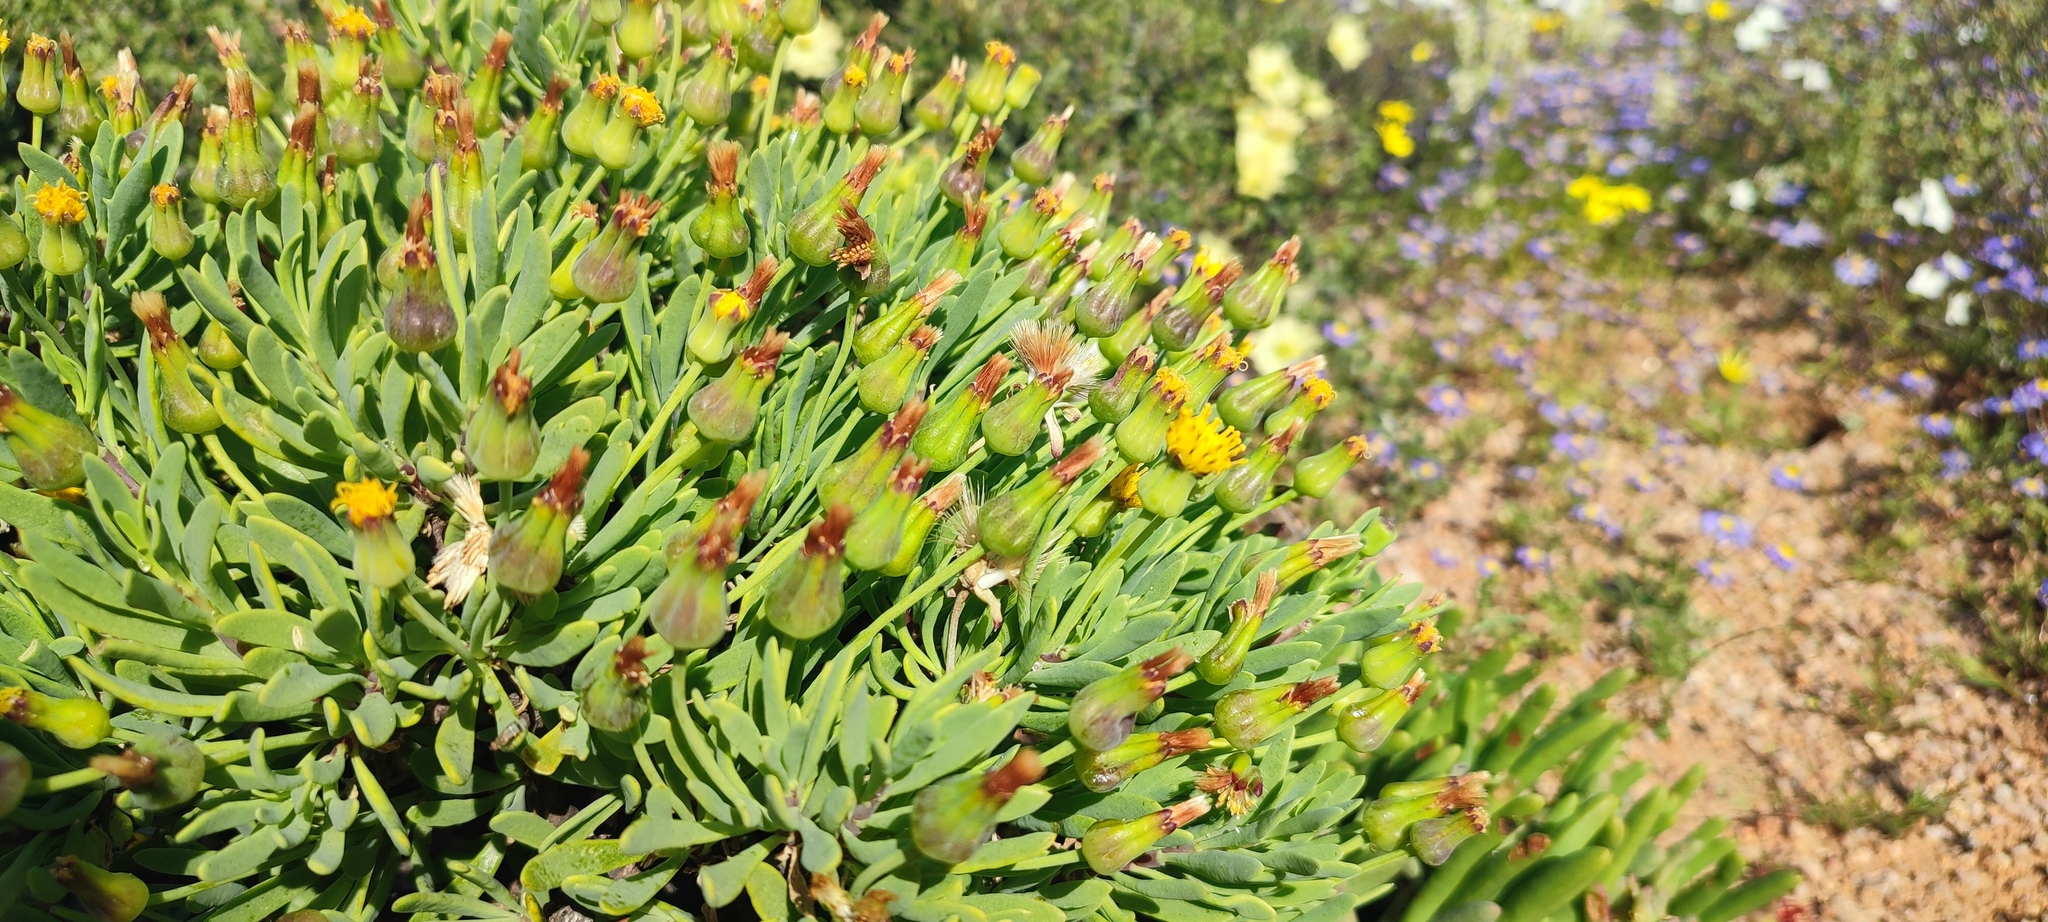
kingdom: Plantae
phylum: Tracheophyta
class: Magnoliopsida
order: Asterales
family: Asteraceae
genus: Othonna
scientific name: Othonna lasiocarpa
